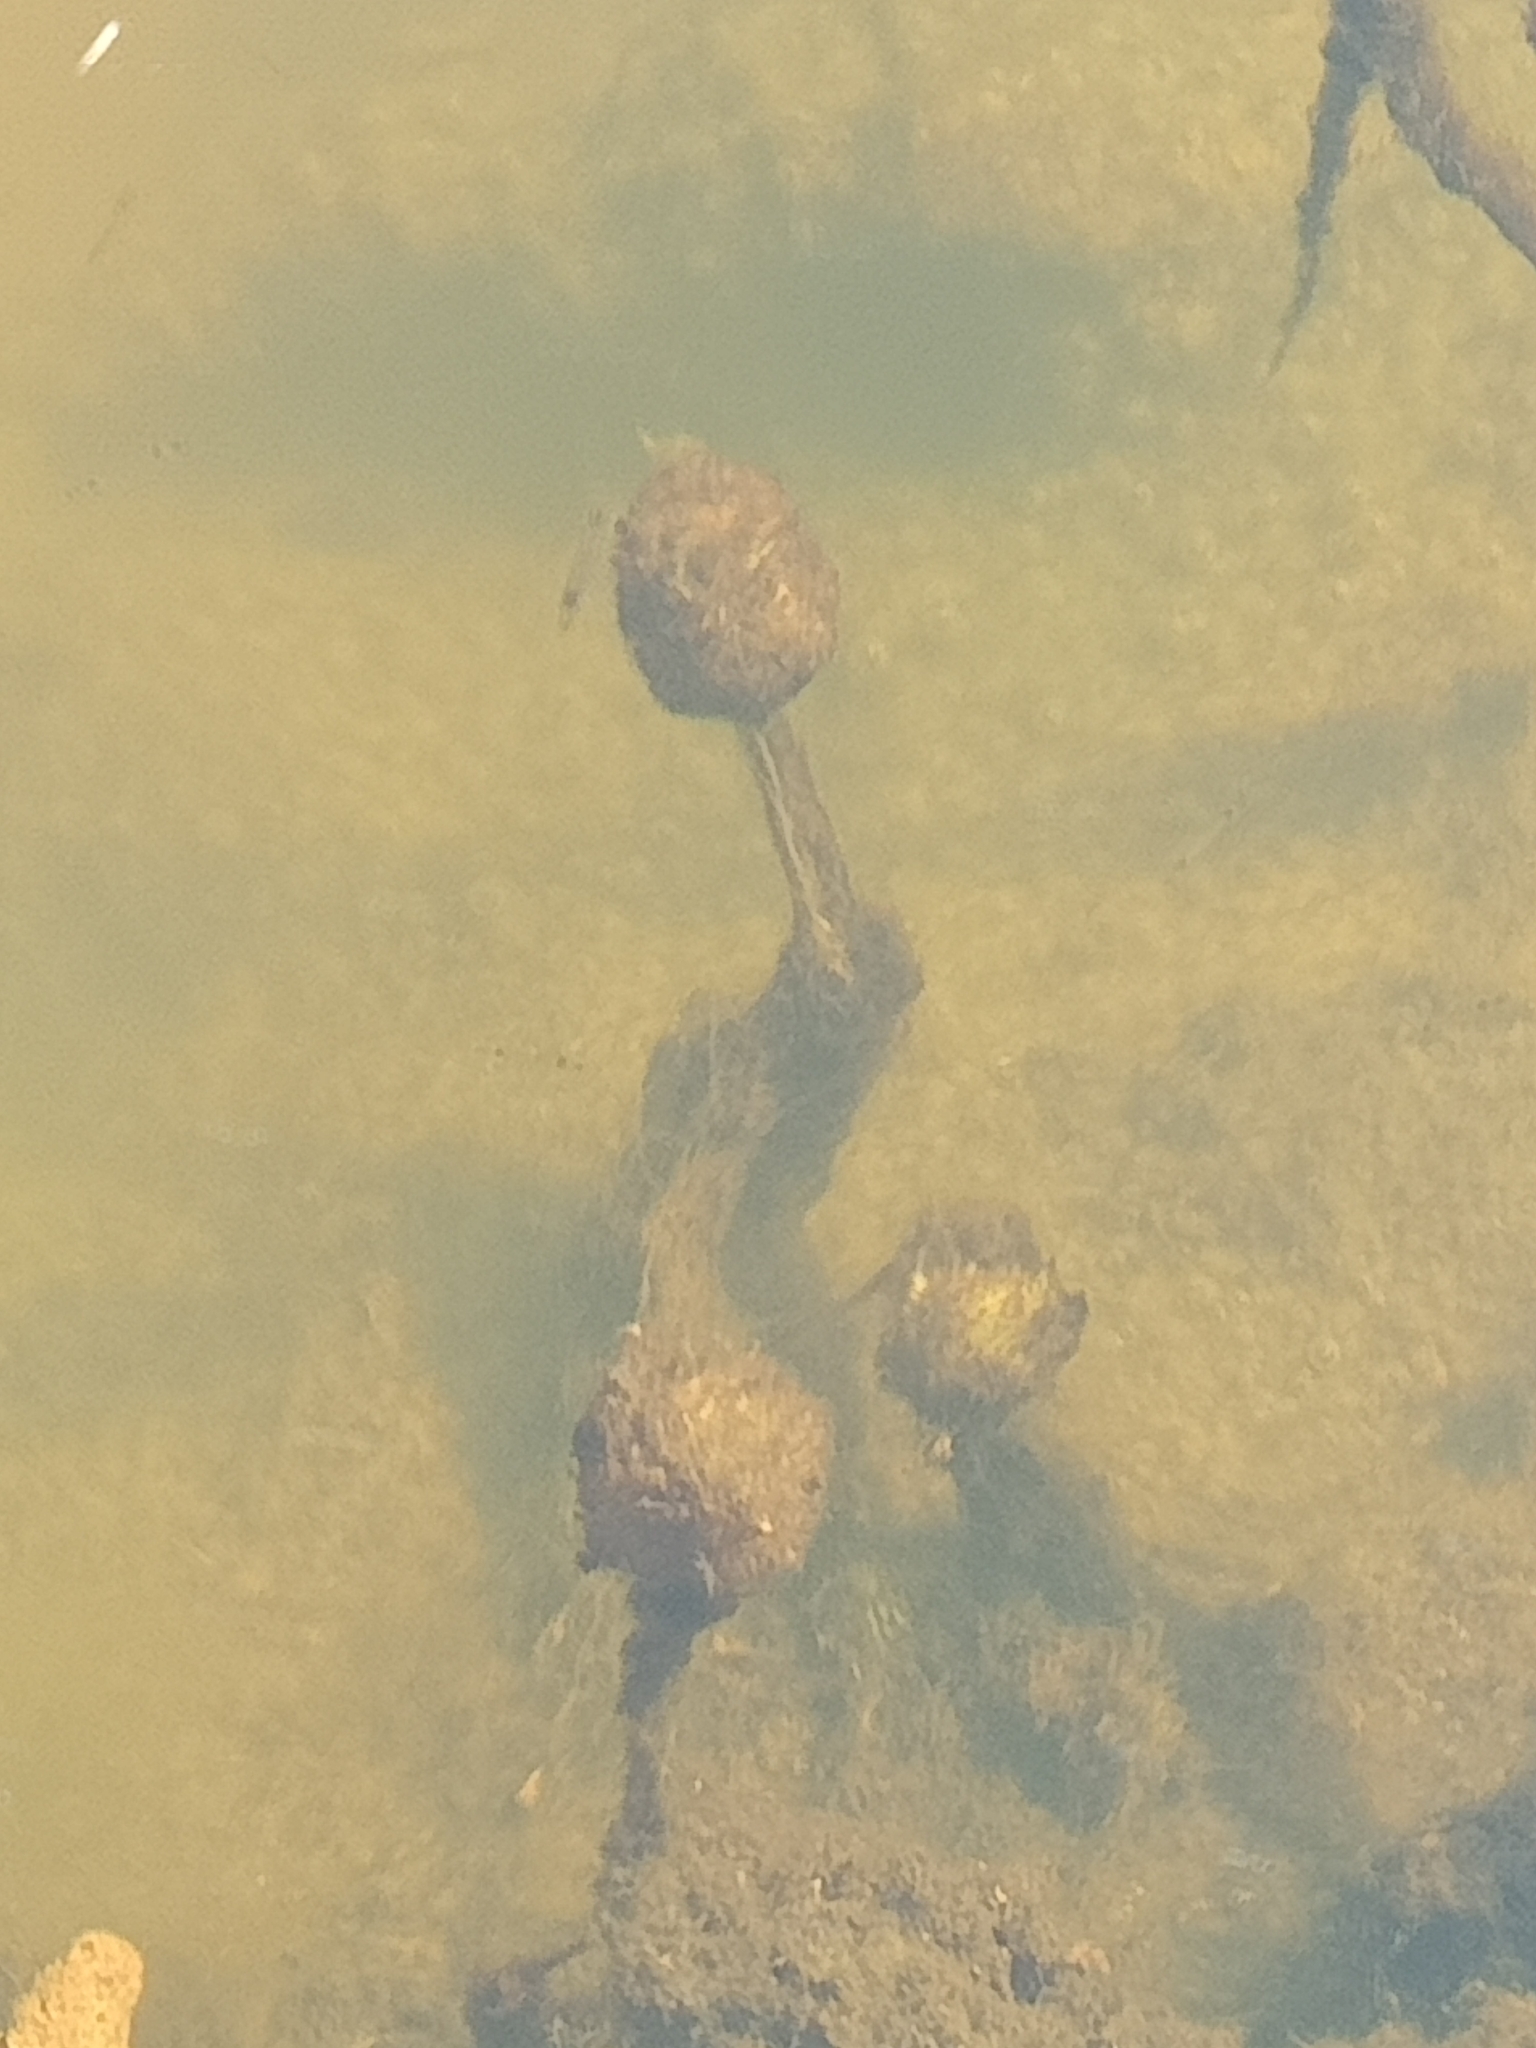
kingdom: Plantae
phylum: Tracheophyta
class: Magnoliopsida
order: Lamiales
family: Lentibulariaceae
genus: Utricularia
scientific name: Utricularia
